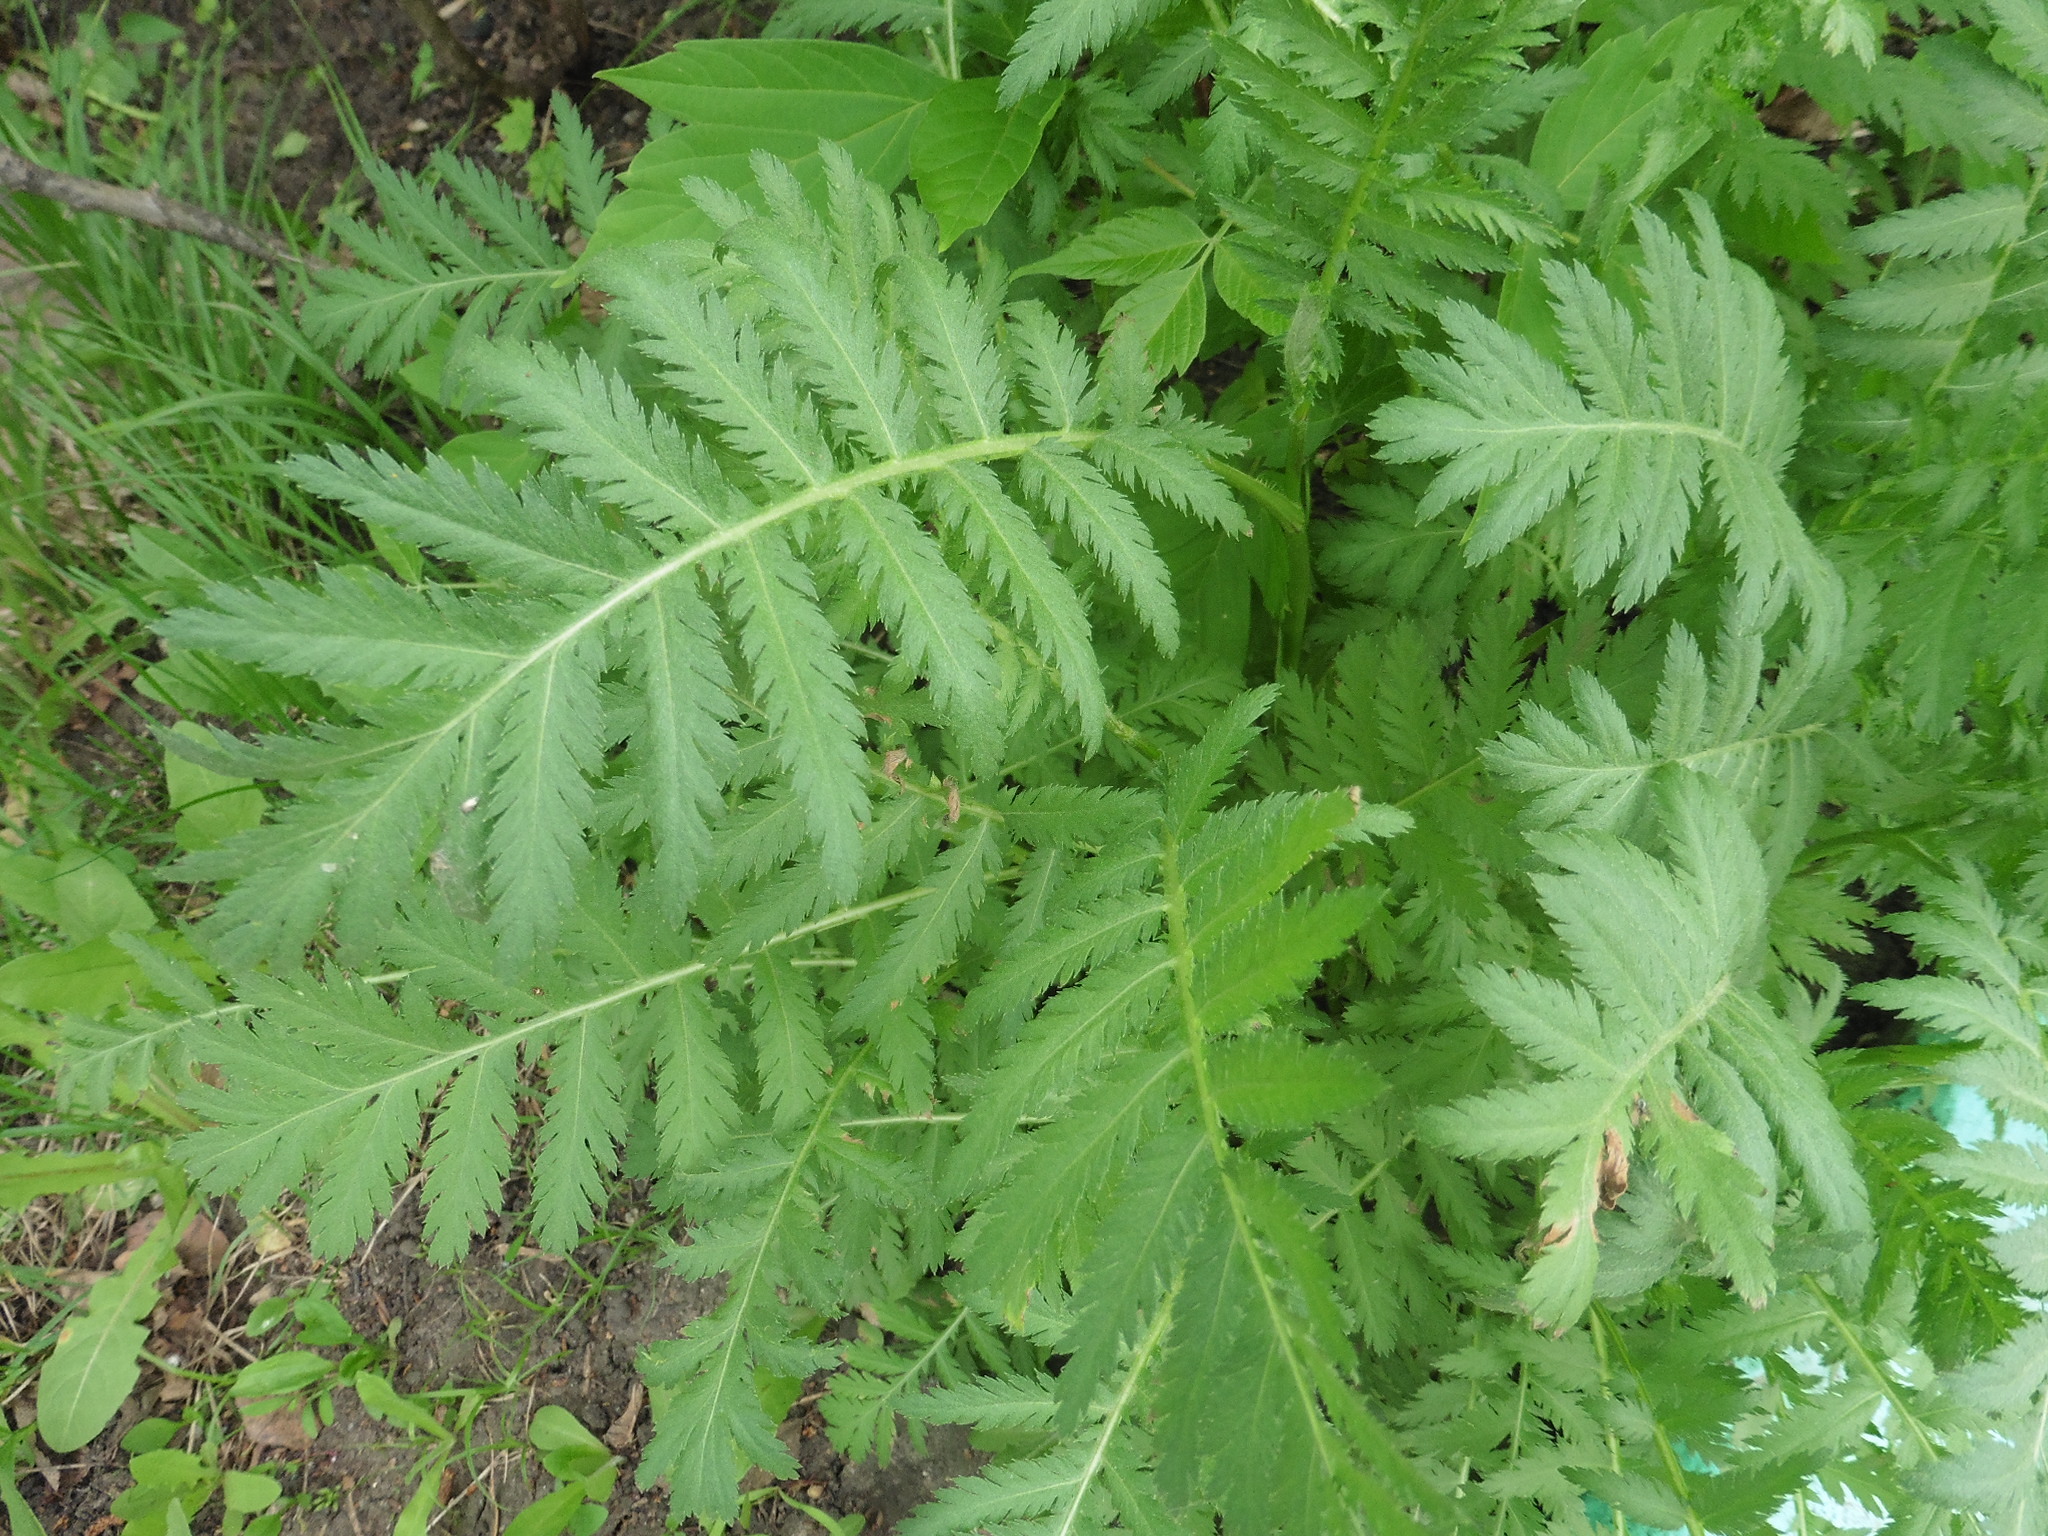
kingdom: Plantae
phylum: Tracheophyta
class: Magnoliopsida
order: Asterales
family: Asteraceae
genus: Tanacetum
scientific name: Tanacetum vulgare
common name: Common tansy
